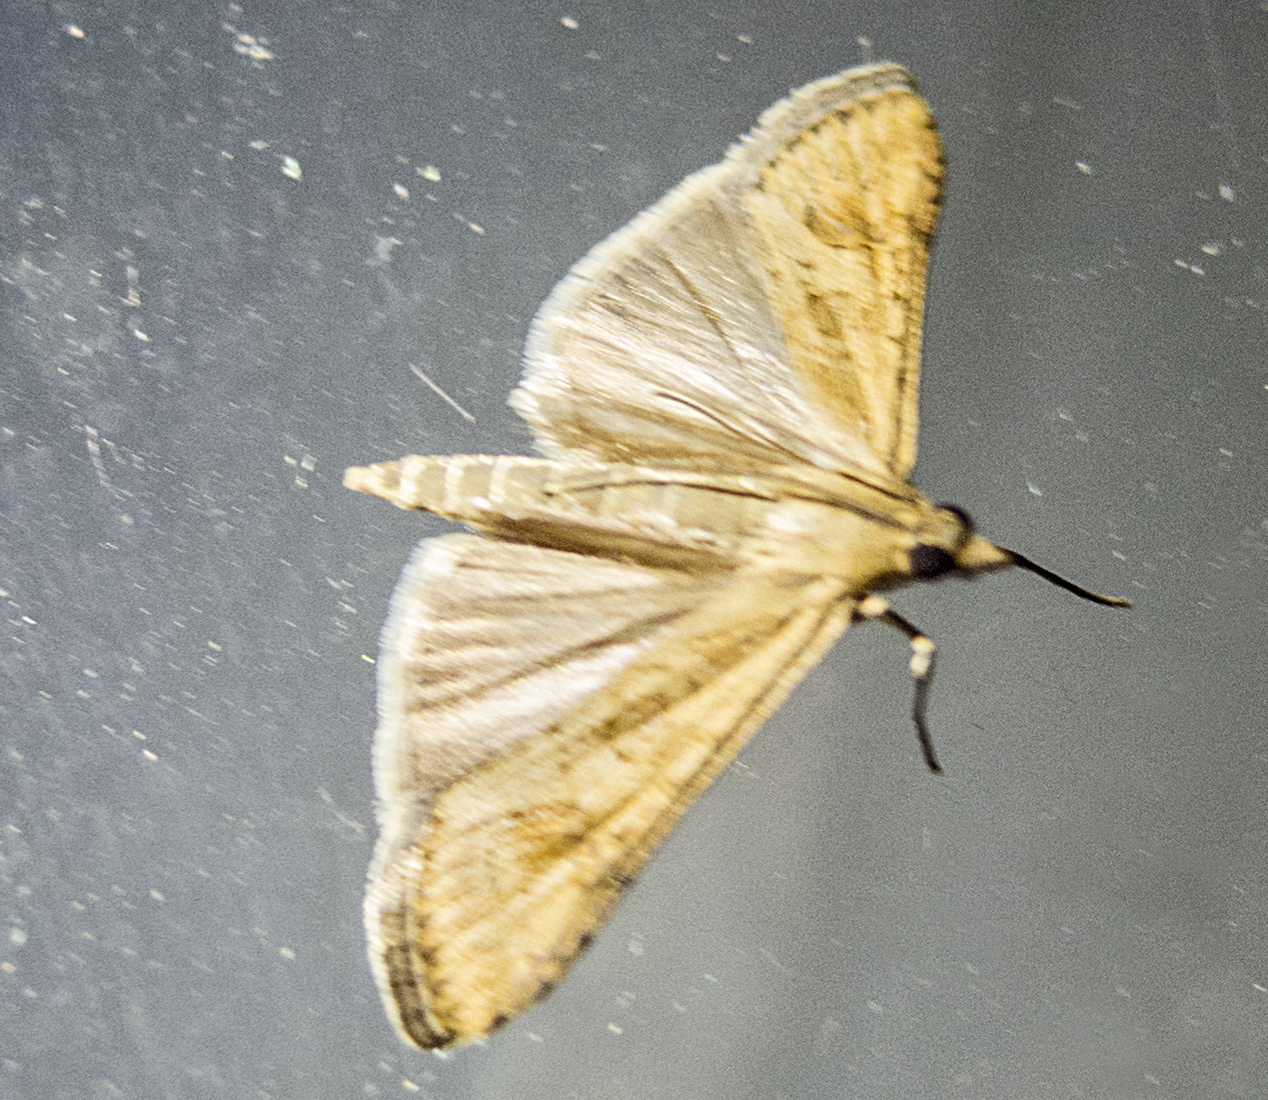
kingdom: Animalia
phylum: Arthropoda
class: Insecta
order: Lepidoptera
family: Crambidae
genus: Nomophila
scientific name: Nomophila noctuella
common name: Rush veneer
